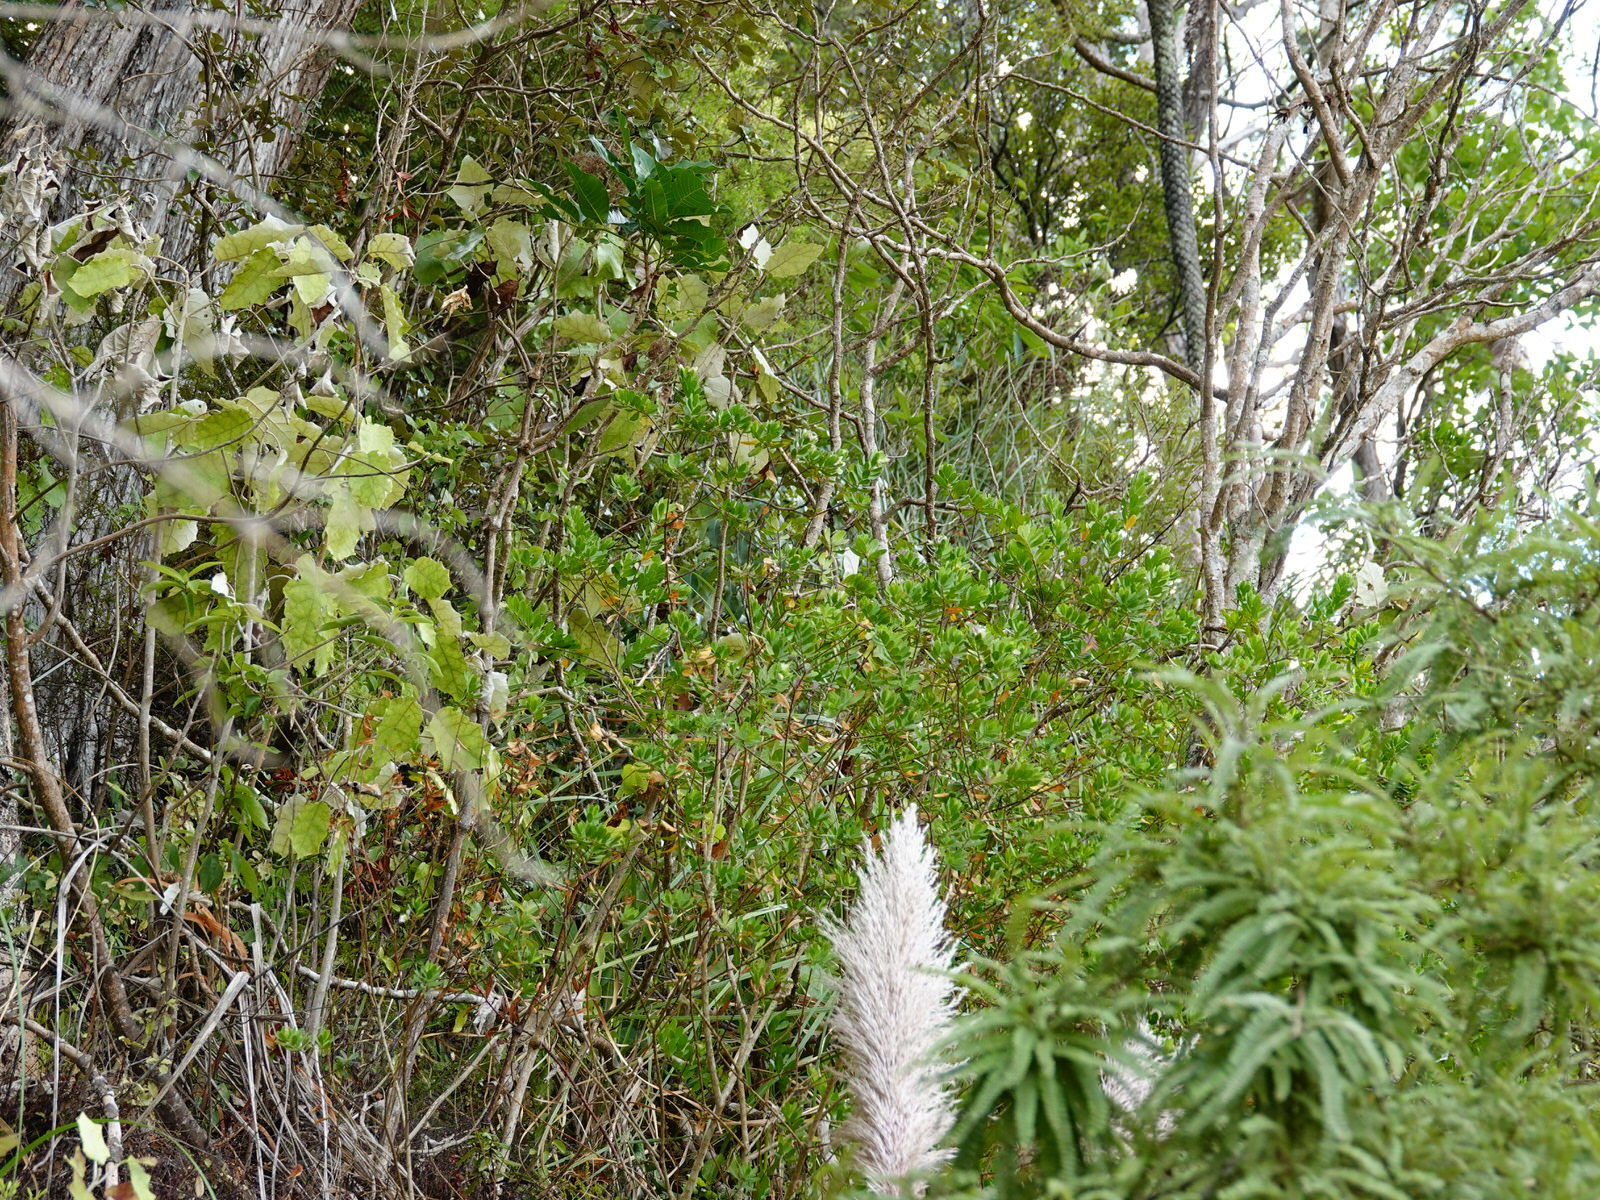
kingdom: Plantae
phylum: Tracheophyta
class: Magnoliopsida
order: Fabales
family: Polygalaceae
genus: Polygala
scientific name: Polygala myrtifolia
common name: Myrtle-leaf milkwort
